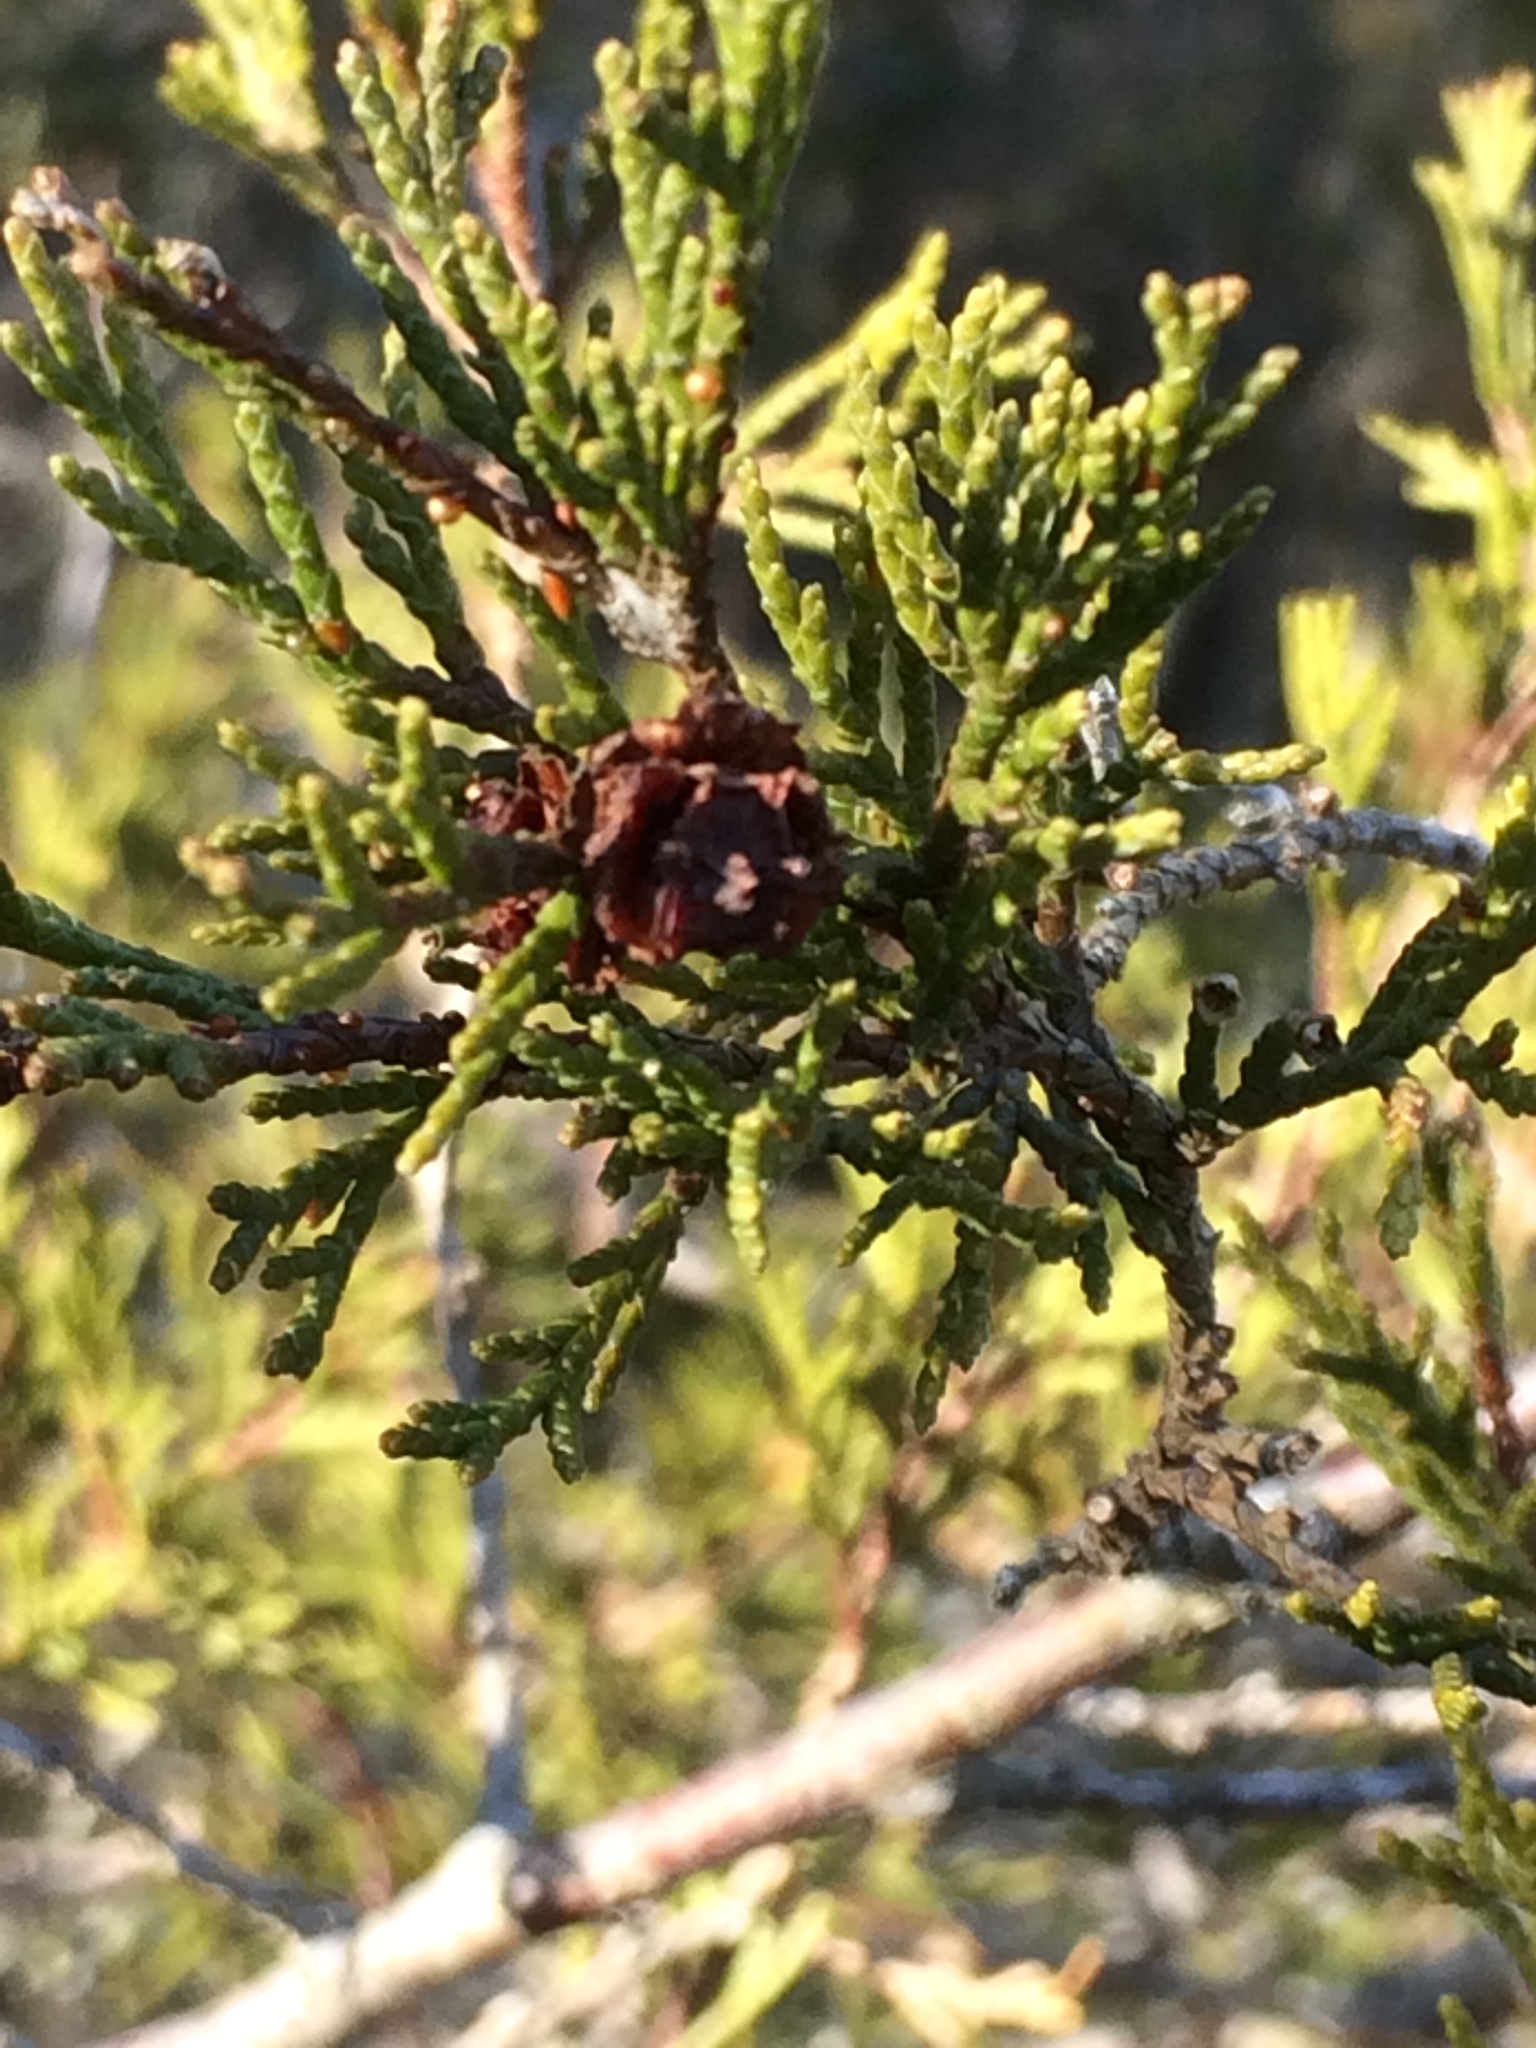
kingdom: Plantae
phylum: Tracheophyta
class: Pinopsida
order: Pinales
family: Cupressaceae
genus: Chamaecyparis
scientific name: Chamaecyparis thyoides
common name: Atlantic white cedar
